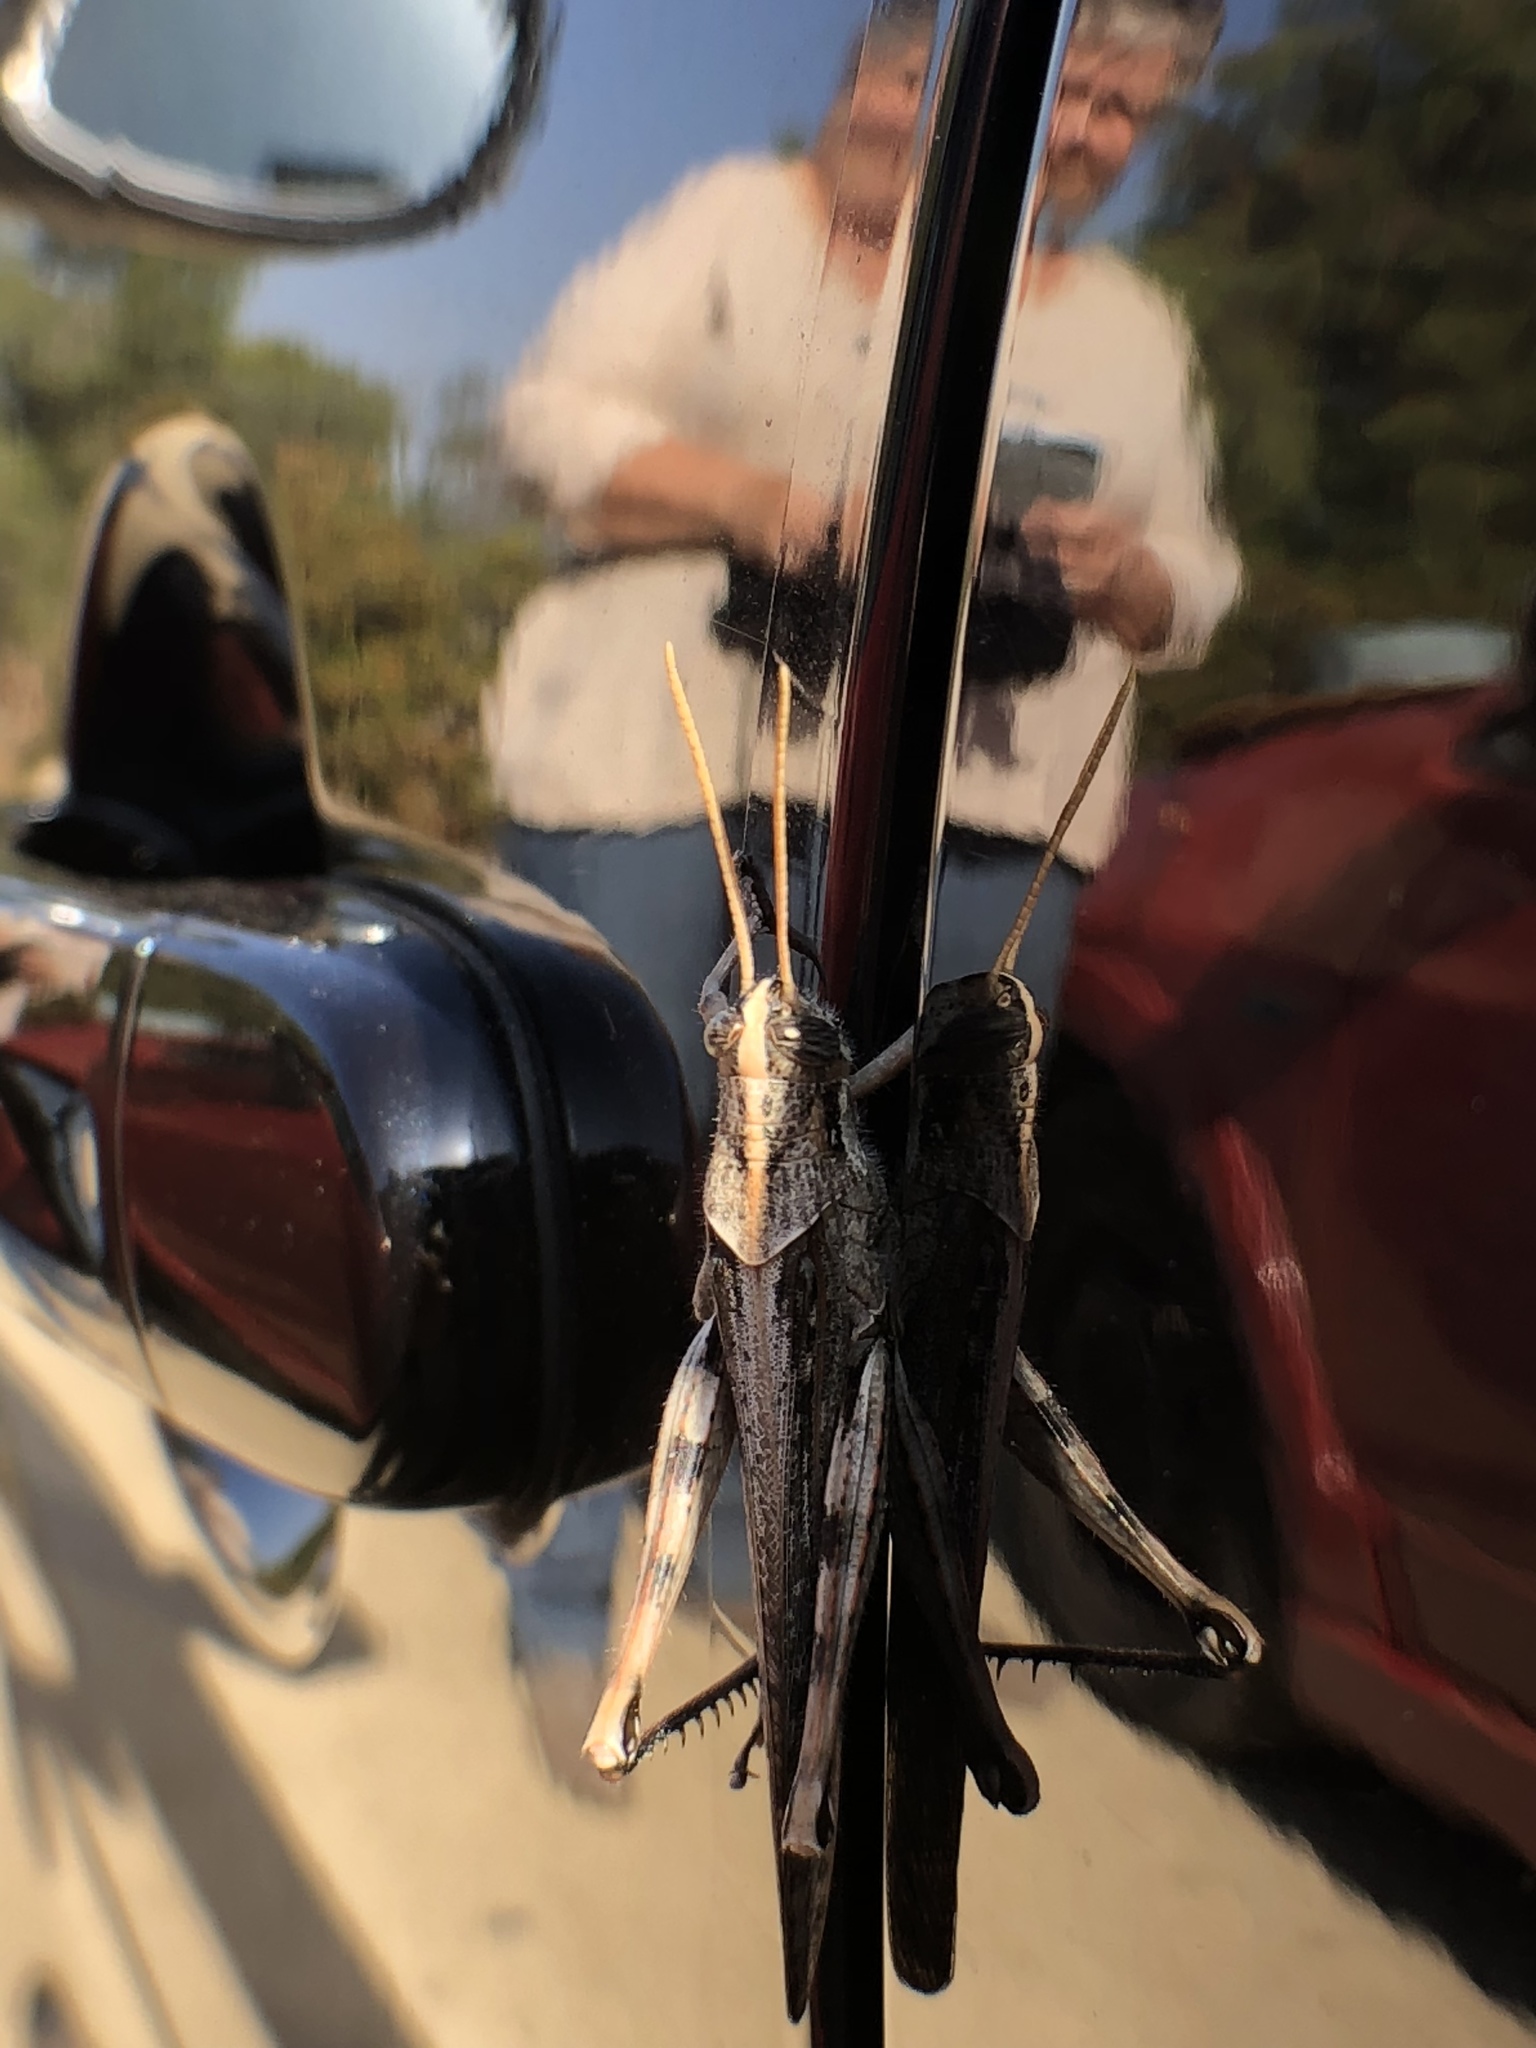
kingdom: Animalia
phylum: Arthropoda
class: Insecta
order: Orthoptera
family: Acrididae
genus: Schistocerca
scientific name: Schistocerca nitens
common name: Vagrant grasshopper
